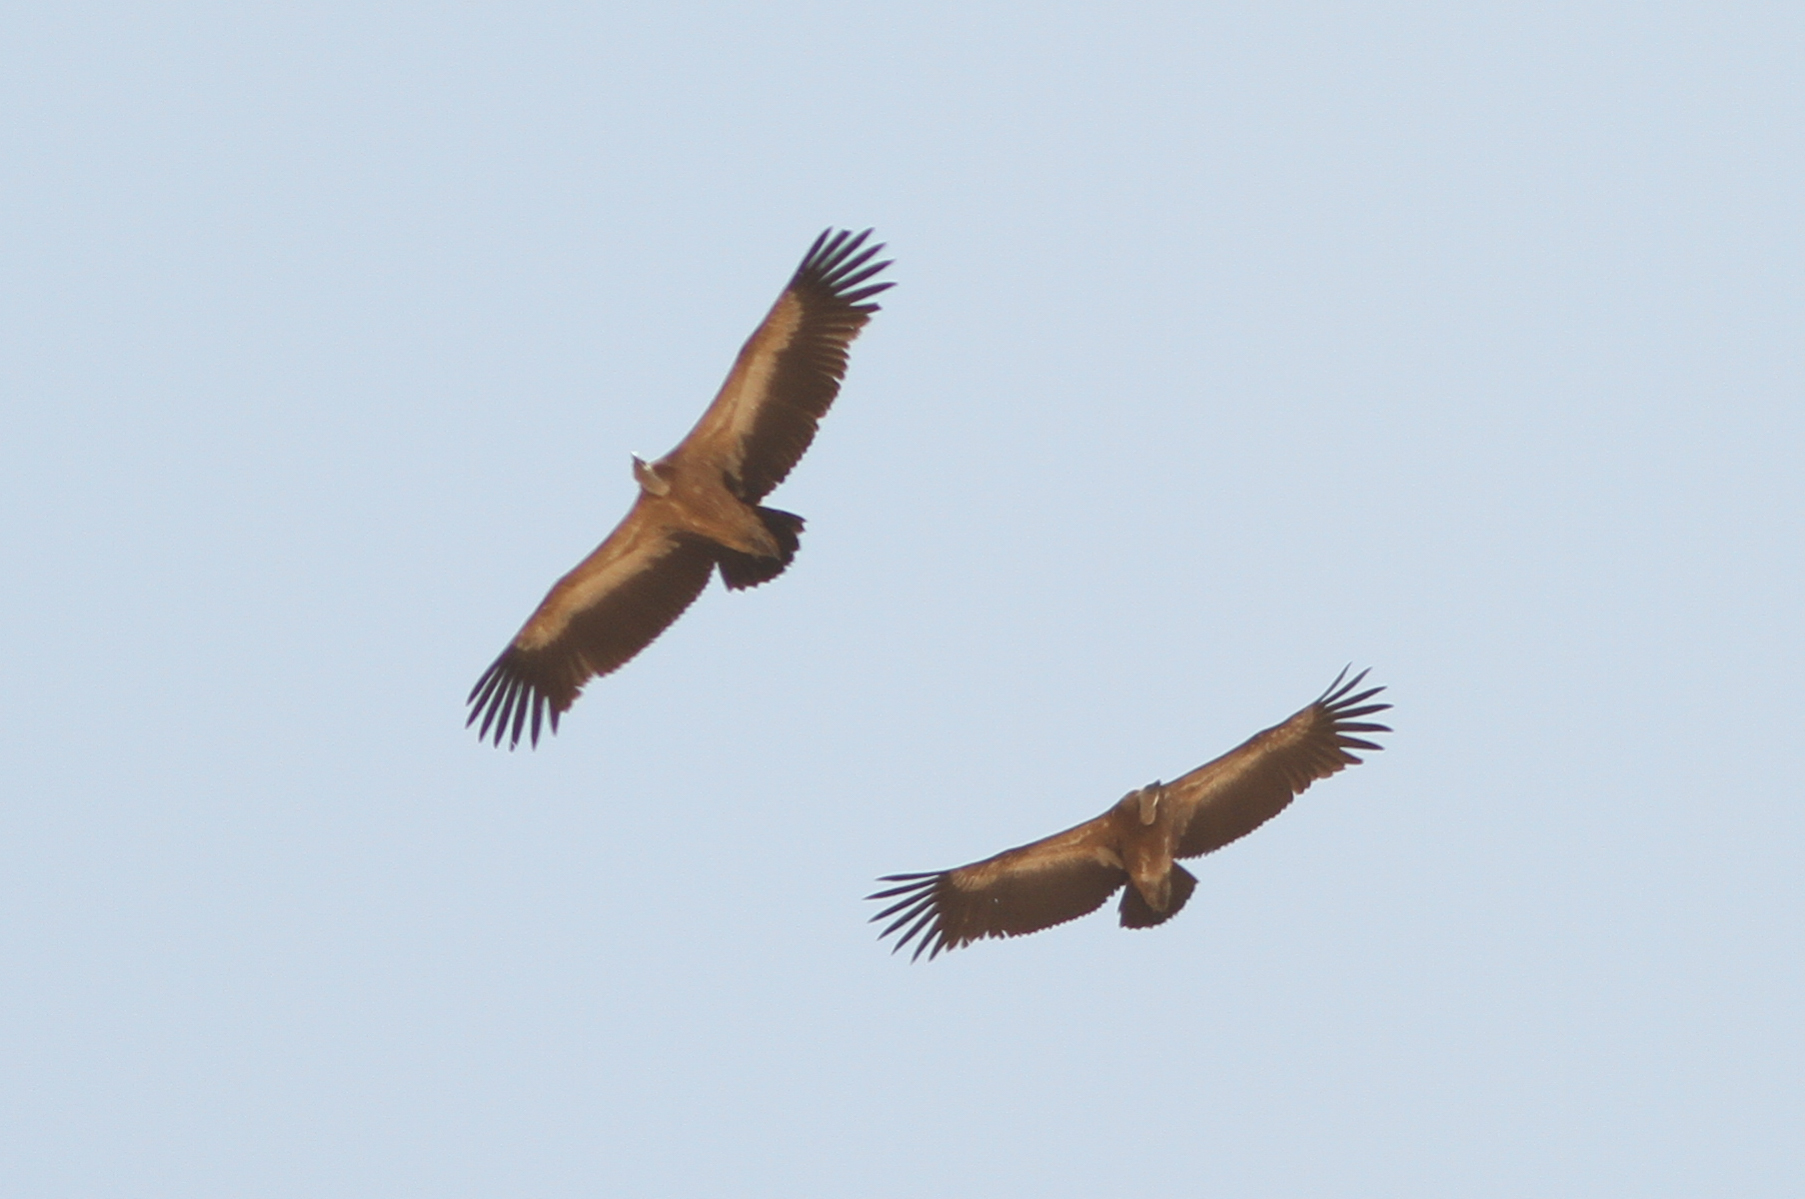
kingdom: Animalia
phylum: Chordata
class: Aves
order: Accipitriformes
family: Accipitridae
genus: Gyps
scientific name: Gyps fulvus
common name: Griffon vulture
